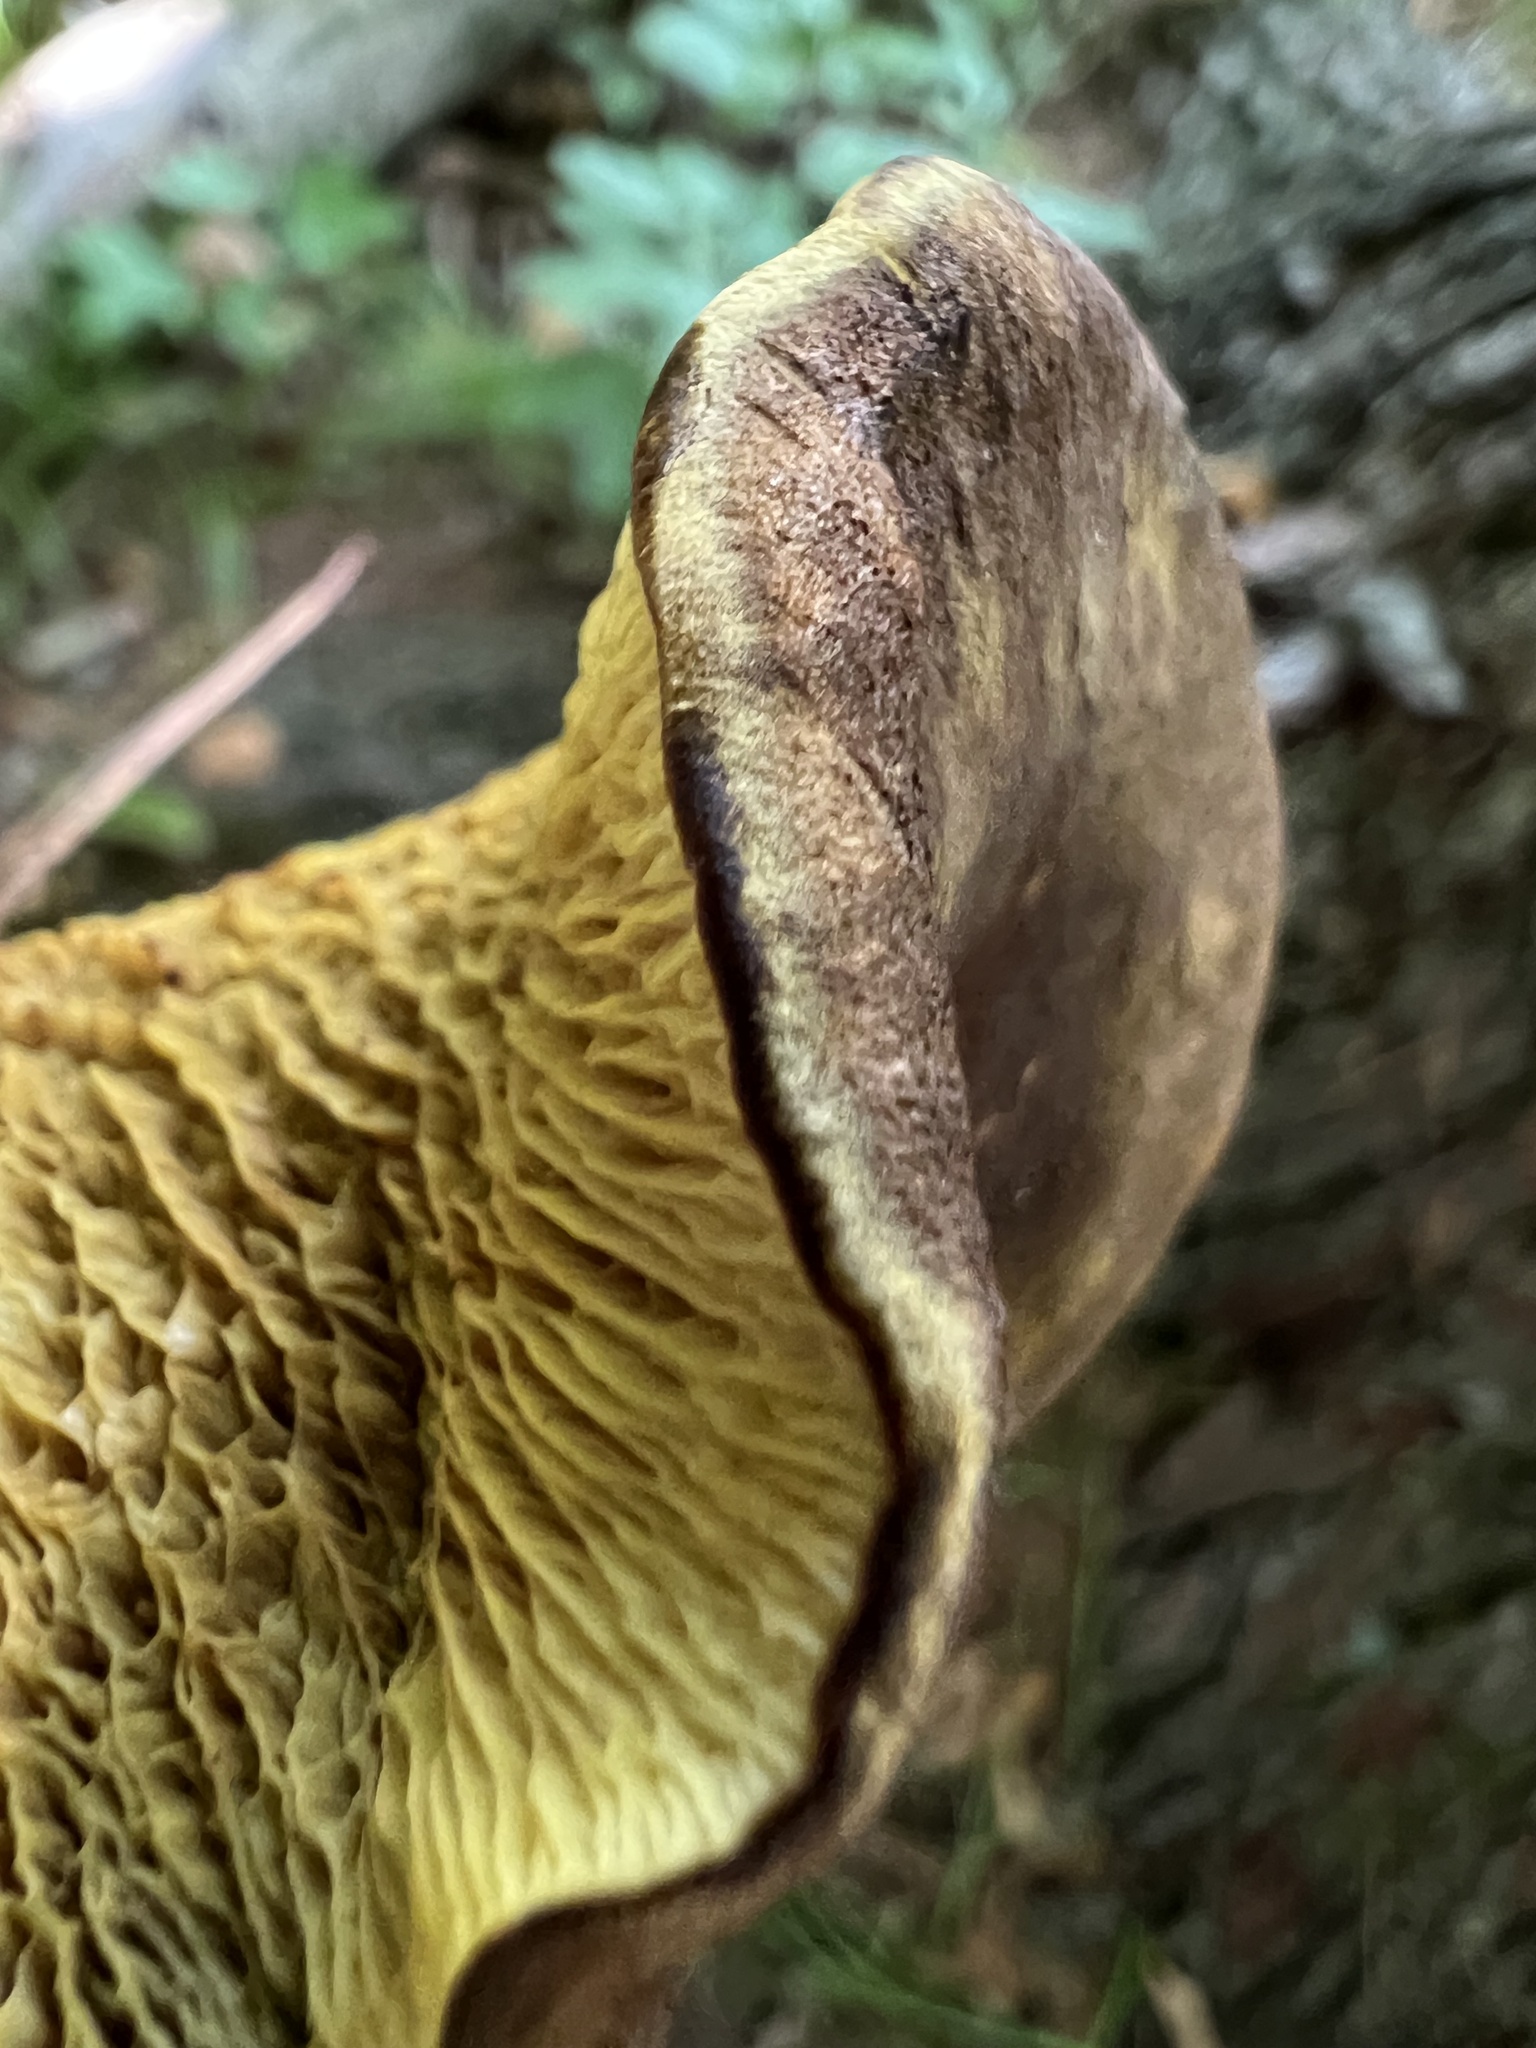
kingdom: Fungi
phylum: Basidiomycota
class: Agaricomycetes
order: Boletales
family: Boletinellaceae
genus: Boletinellus
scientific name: Boletinellus merulioides
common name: Ash tree bolete
